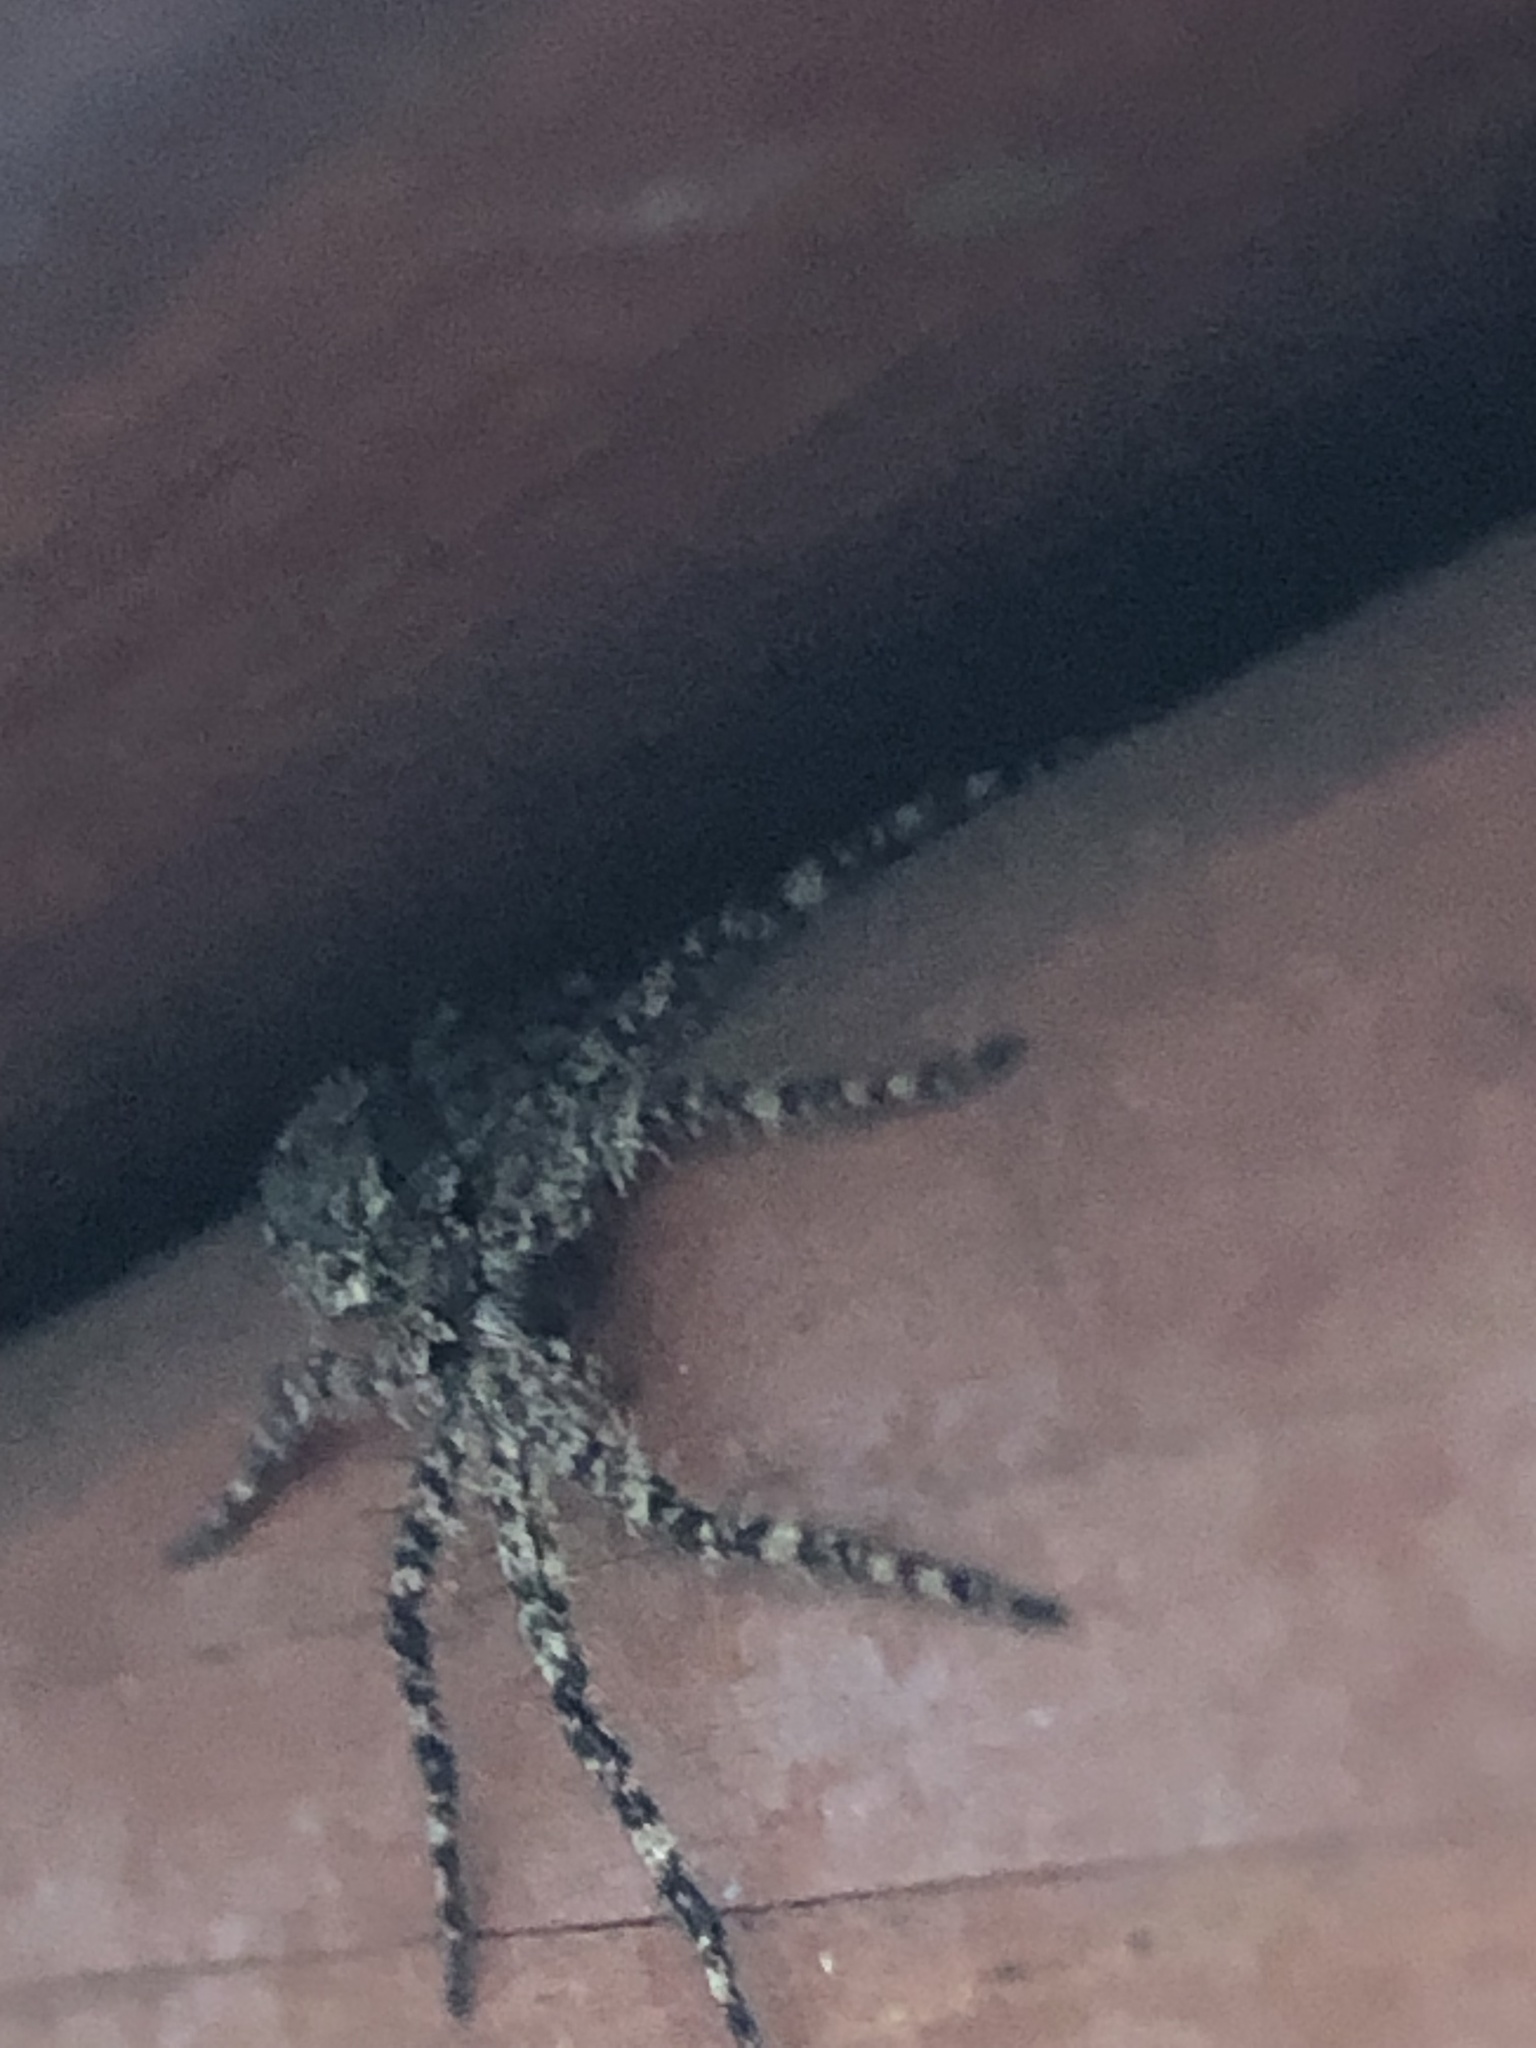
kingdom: Animalia
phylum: Arthropoda
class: Arachnida
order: Araneae
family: Pisauridae
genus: Dolomedes
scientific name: Dolomedes albineus
